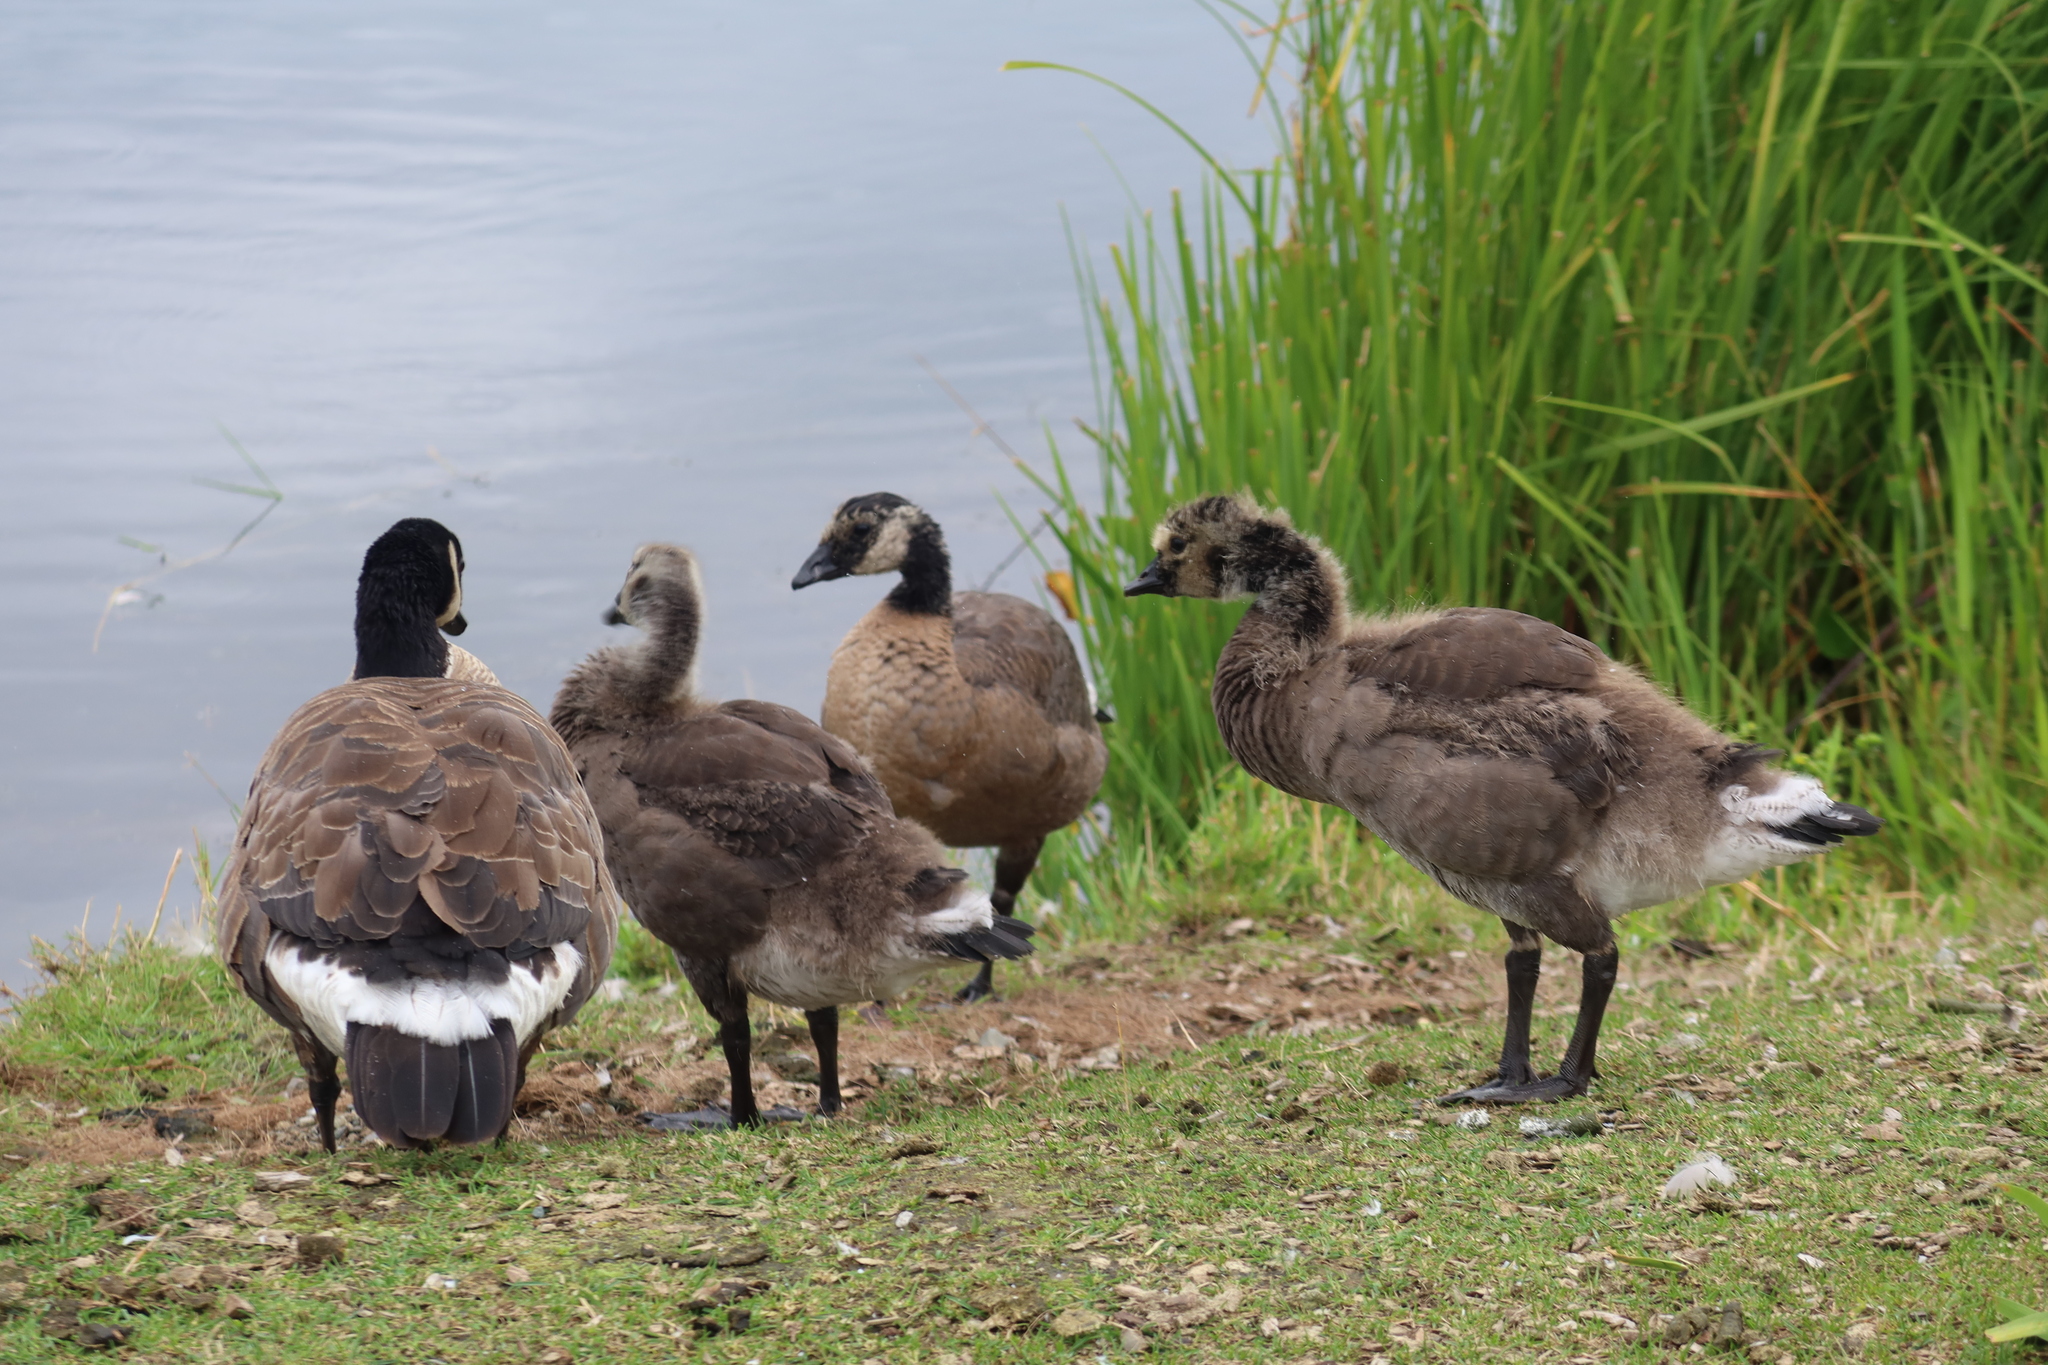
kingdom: Animalia
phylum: Chordata
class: Aves
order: Anseriformes
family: Anatidae
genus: Branta
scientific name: Branta canadensis
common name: Canada goose
